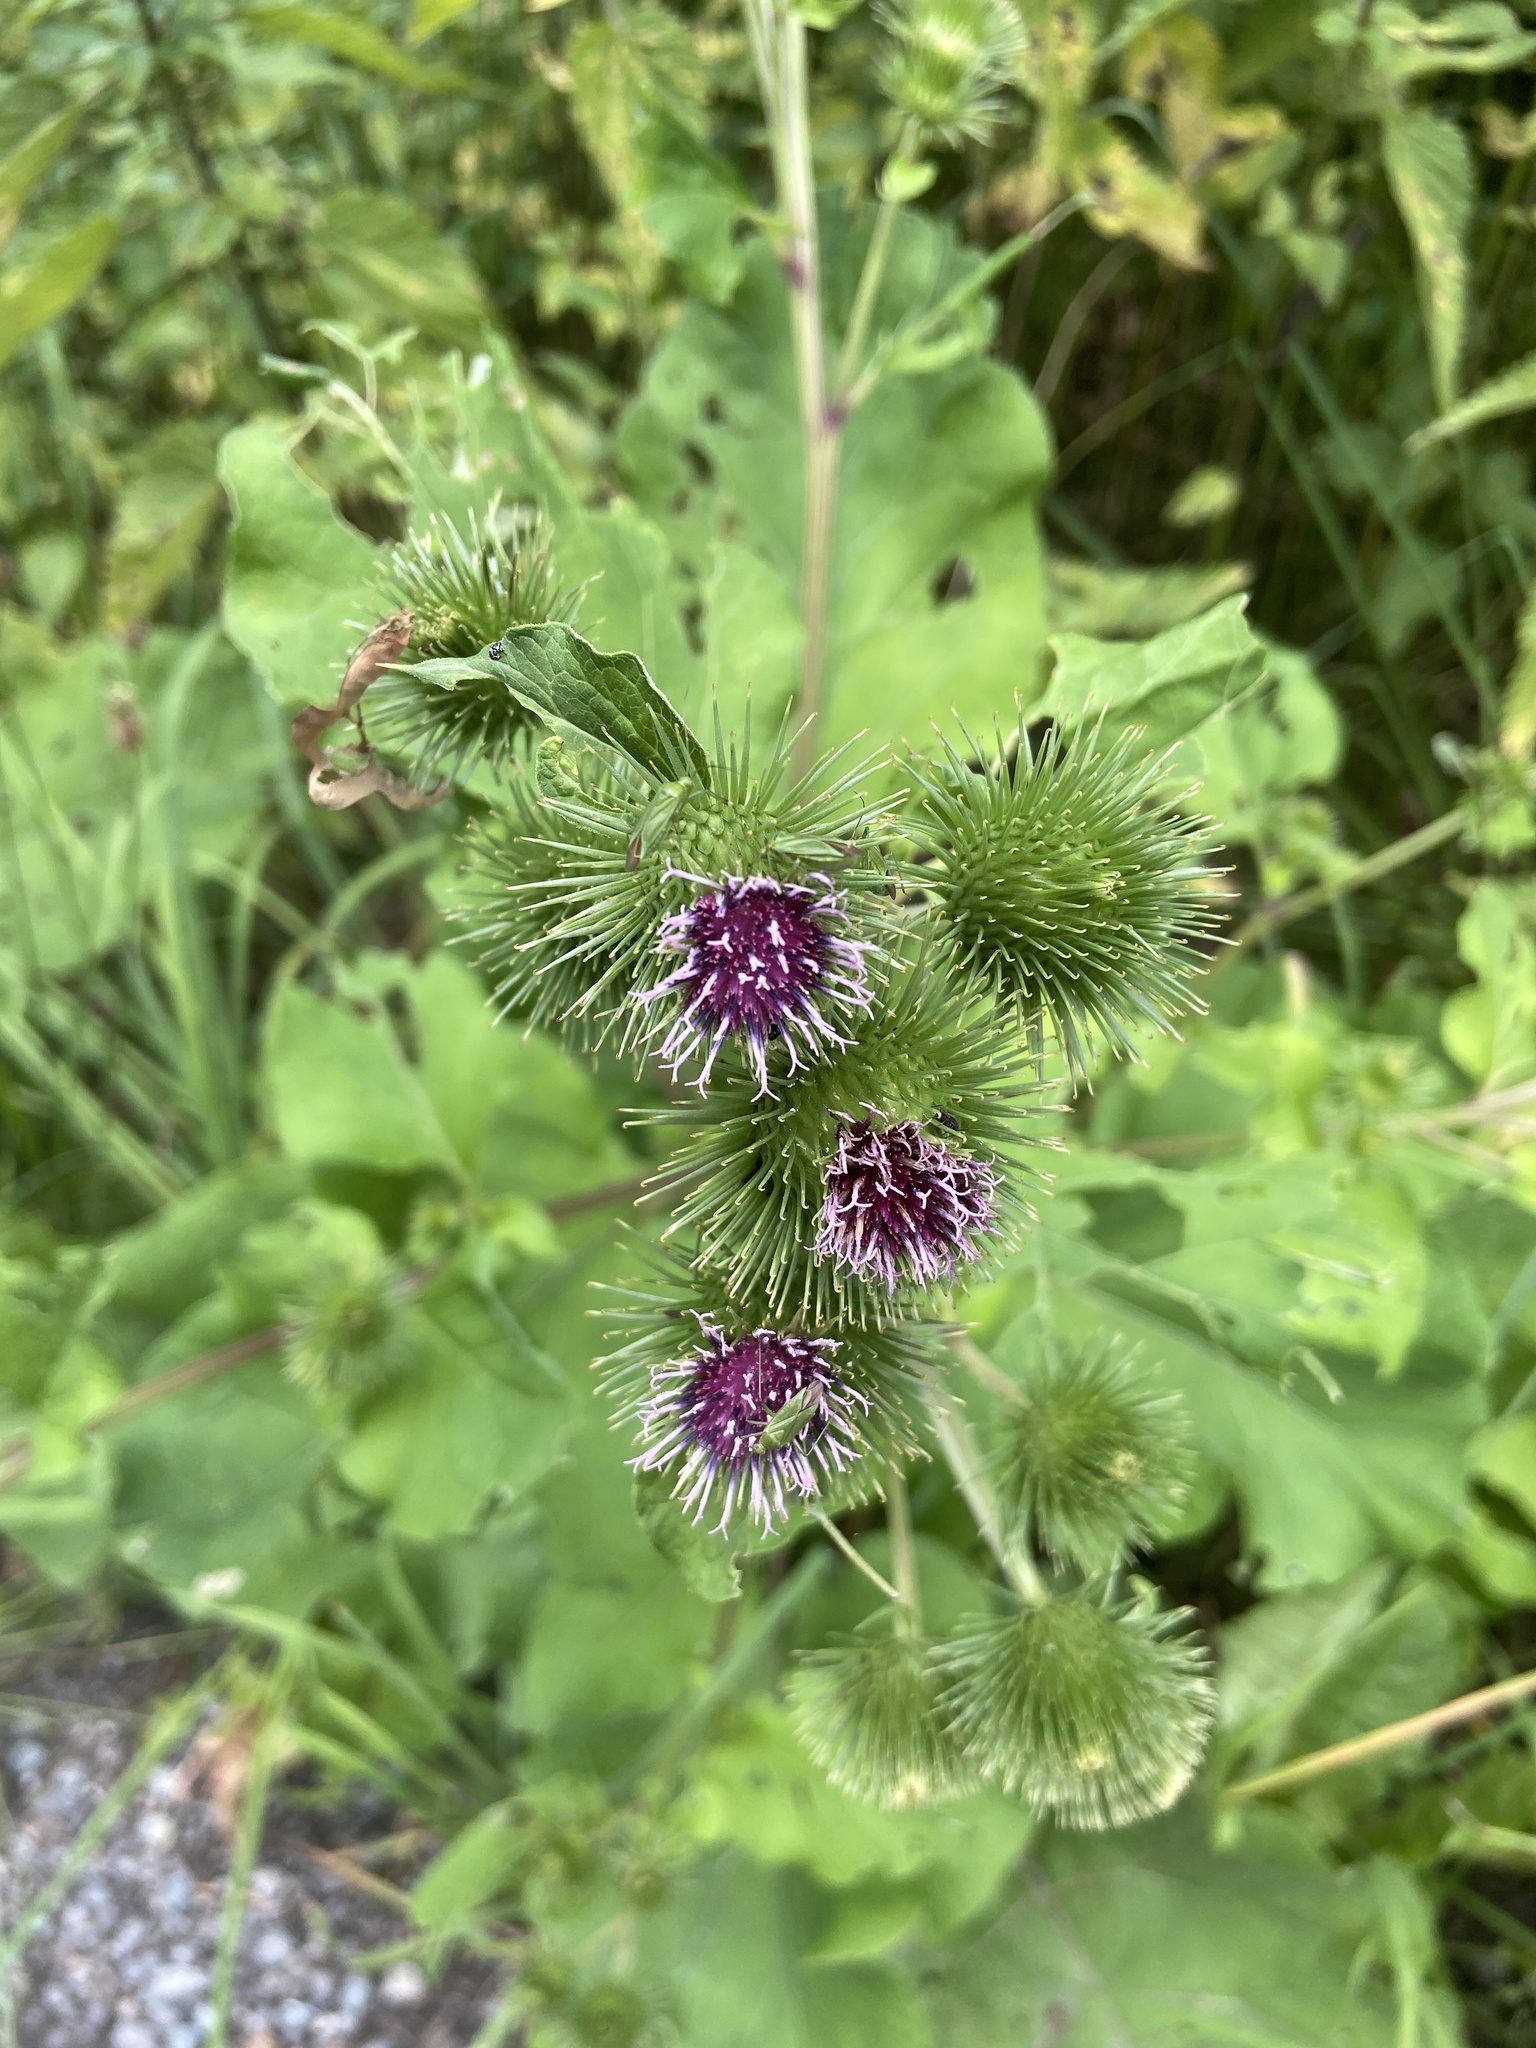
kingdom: Plantae
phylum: Tracheophyta
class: Magnoliopsida
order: Asterales
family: Asteraceae
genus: Arctium
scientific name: Arctium lappa
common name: Greater burdock
